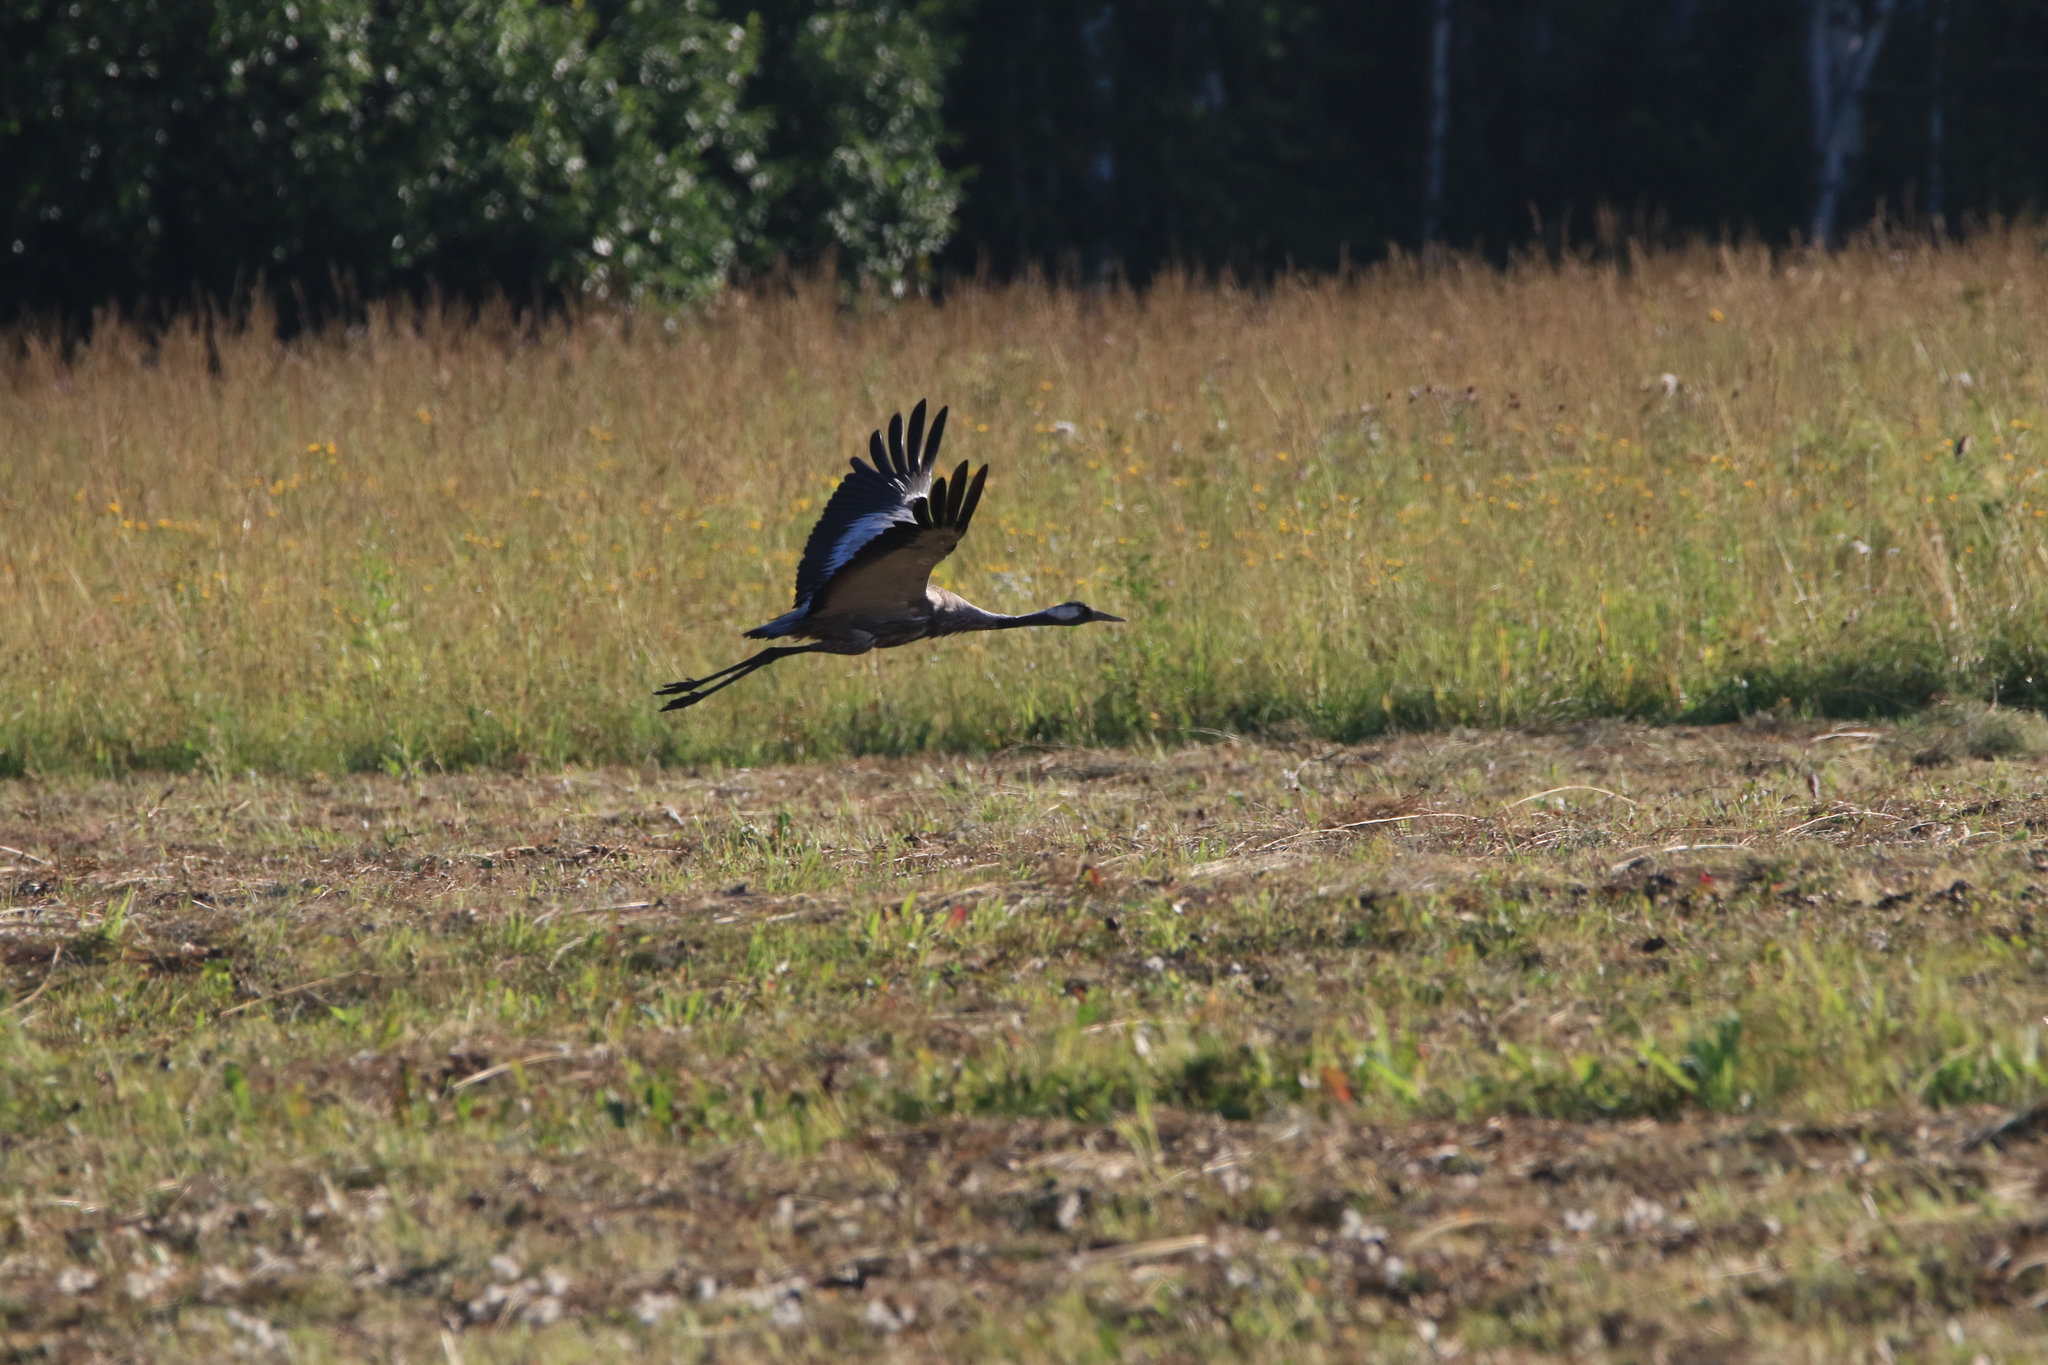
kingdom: Animalia
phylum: Chordata
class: Aves
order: Gruiformes
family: Gruidae
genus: Grus
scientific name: Grus grus
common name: Common crane
